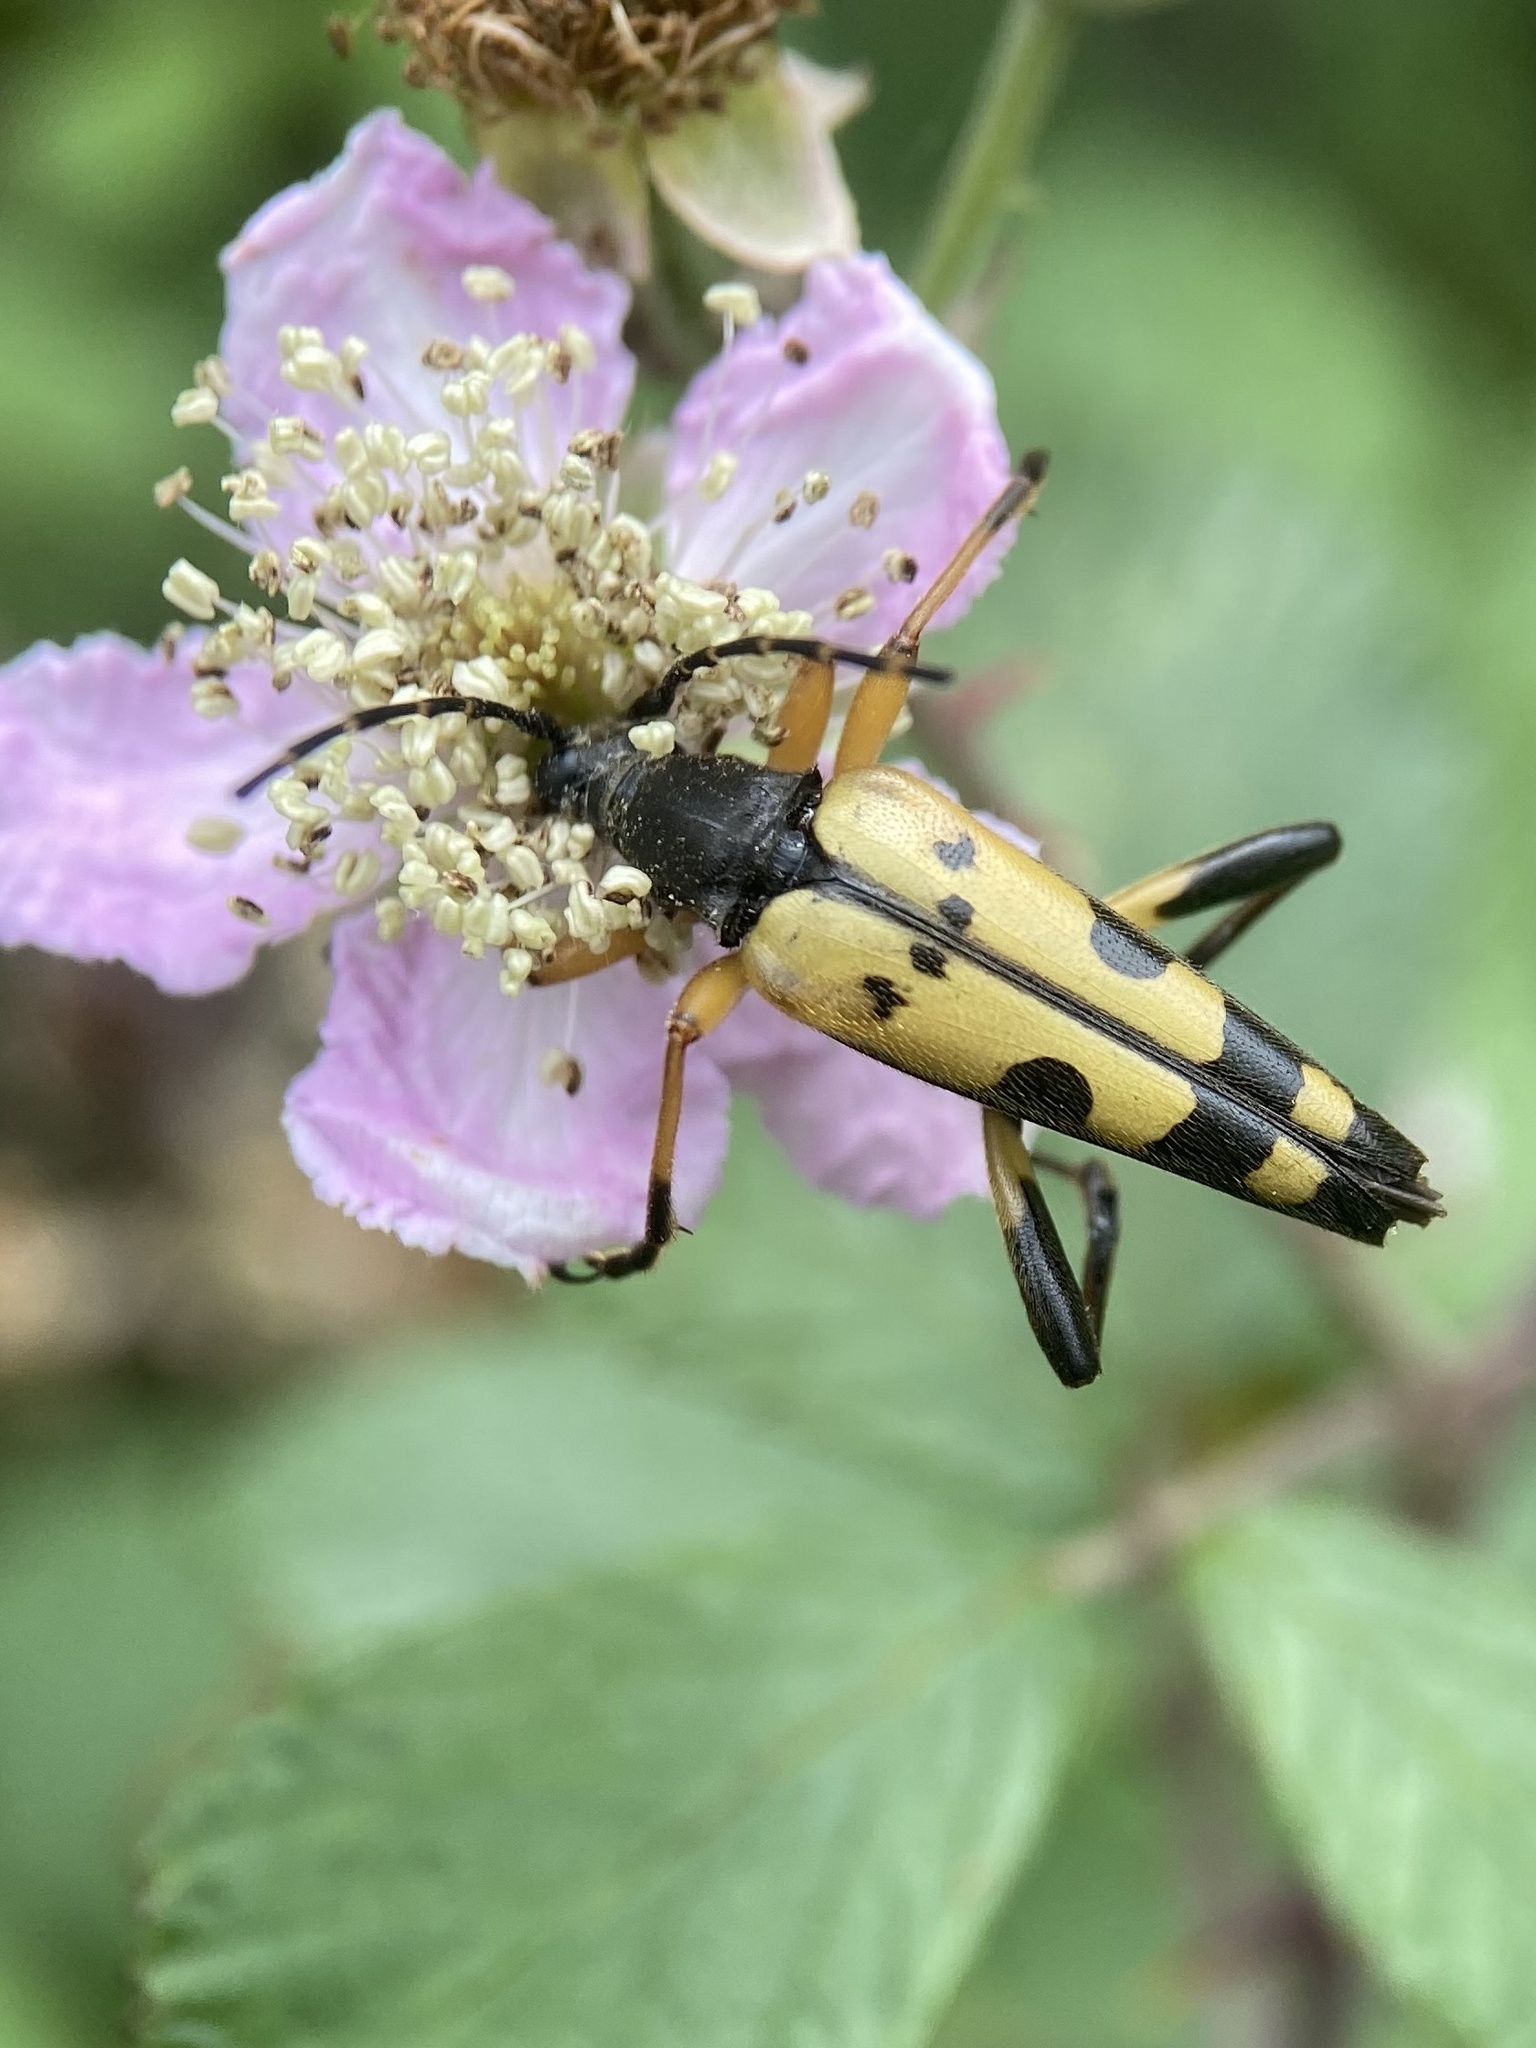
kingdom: Animalia
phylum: Arthropoda
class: Insecta
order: Coleoptera
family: Cerambycidae
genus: Rutpela
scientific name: Rutpela maculata
